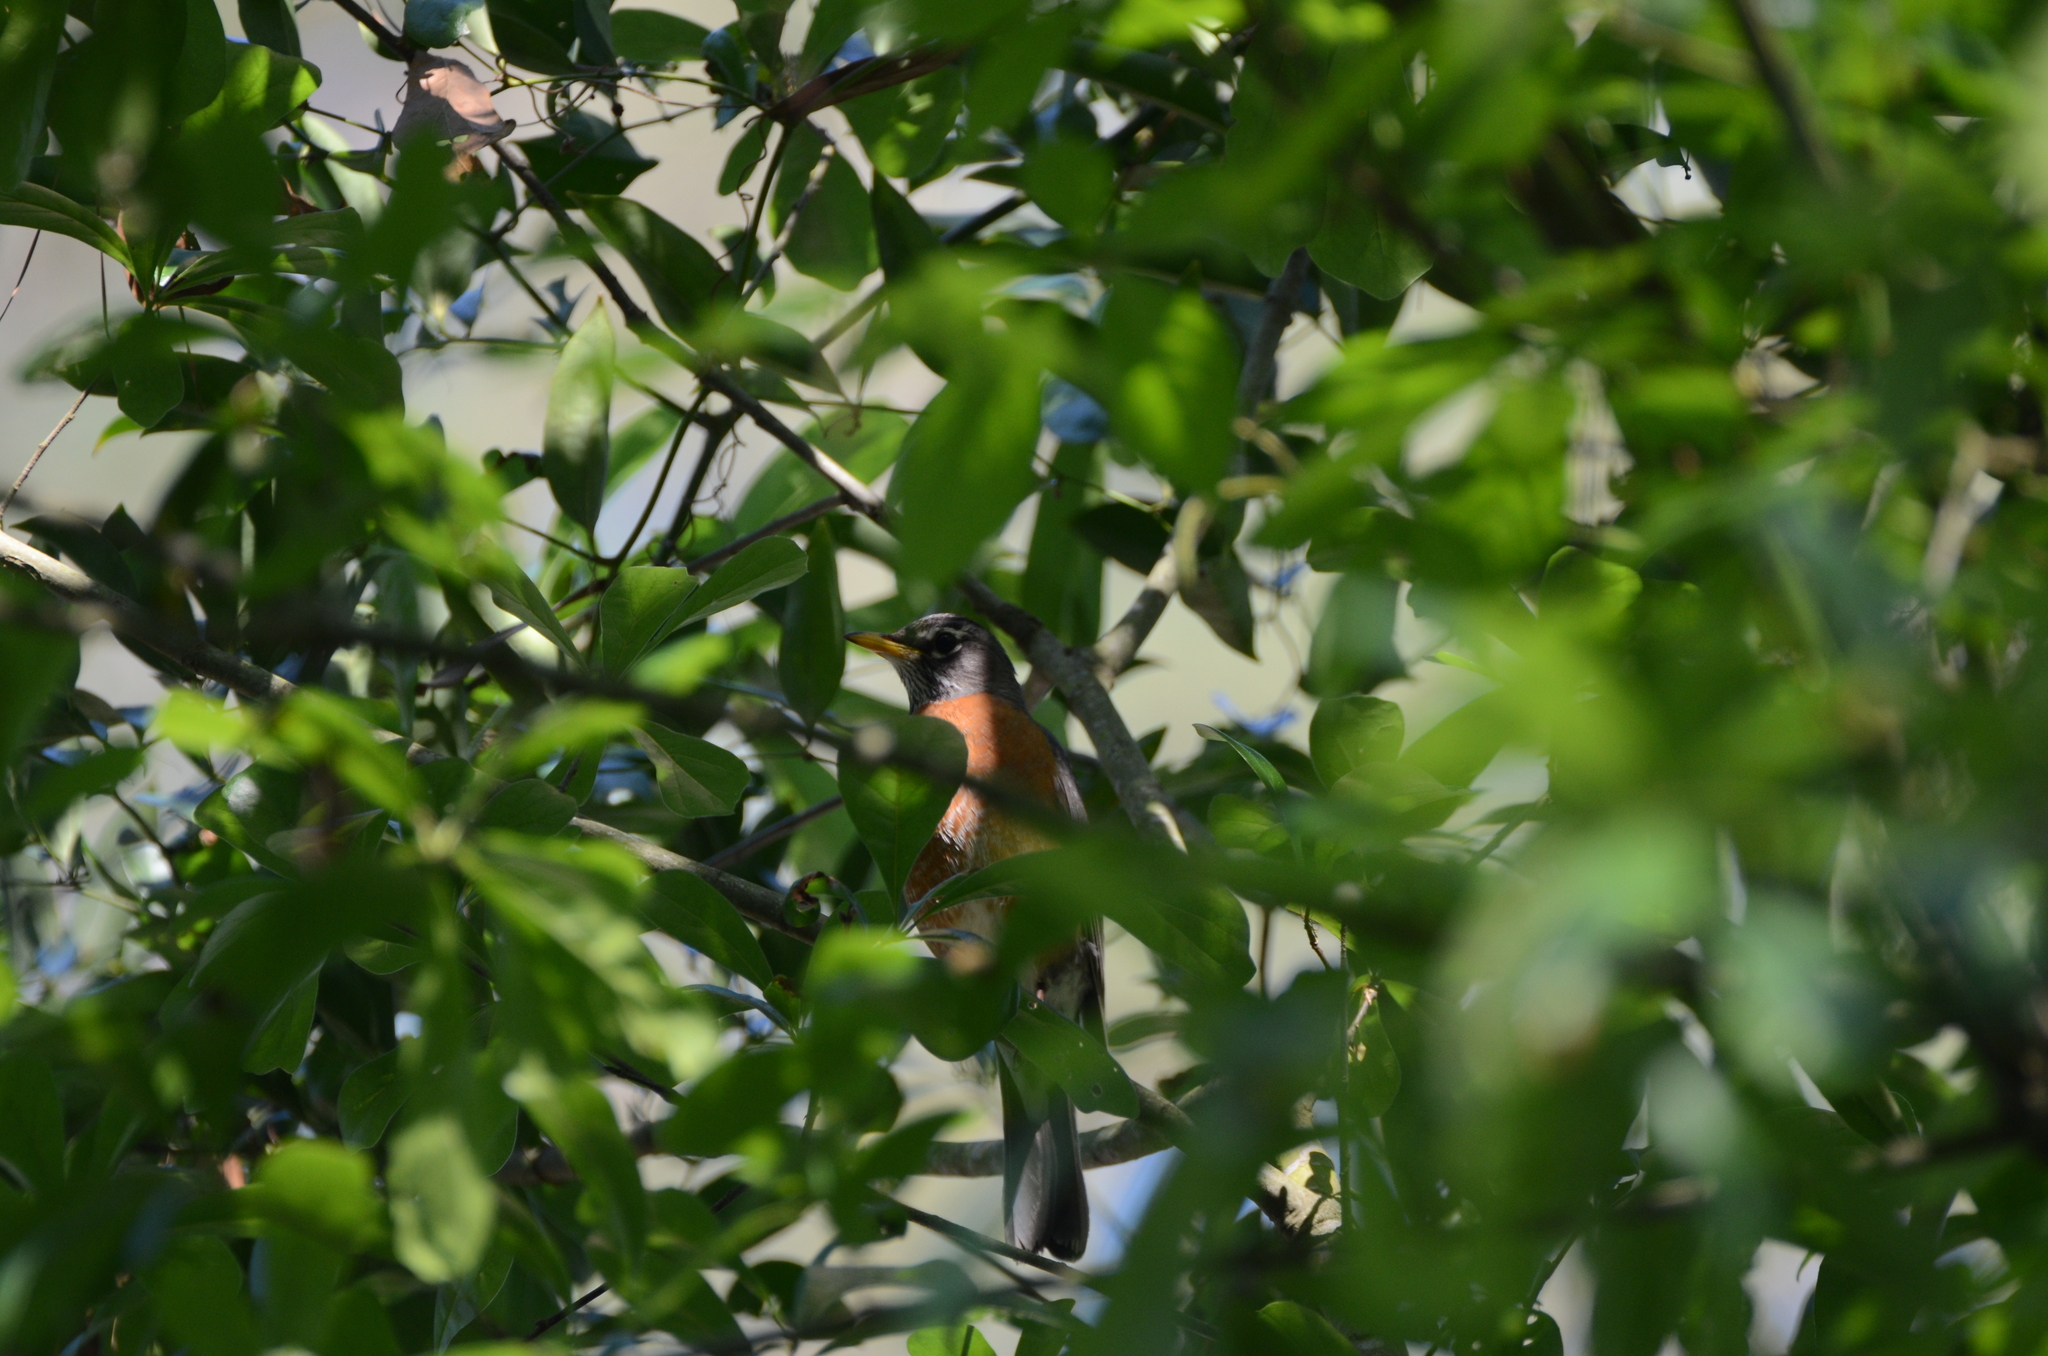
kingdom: Animalia
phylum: Chordata
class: Aves
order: Passeriformes
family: Turdidae
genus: Turdus
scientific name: Turdus migratorius
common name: American robin
